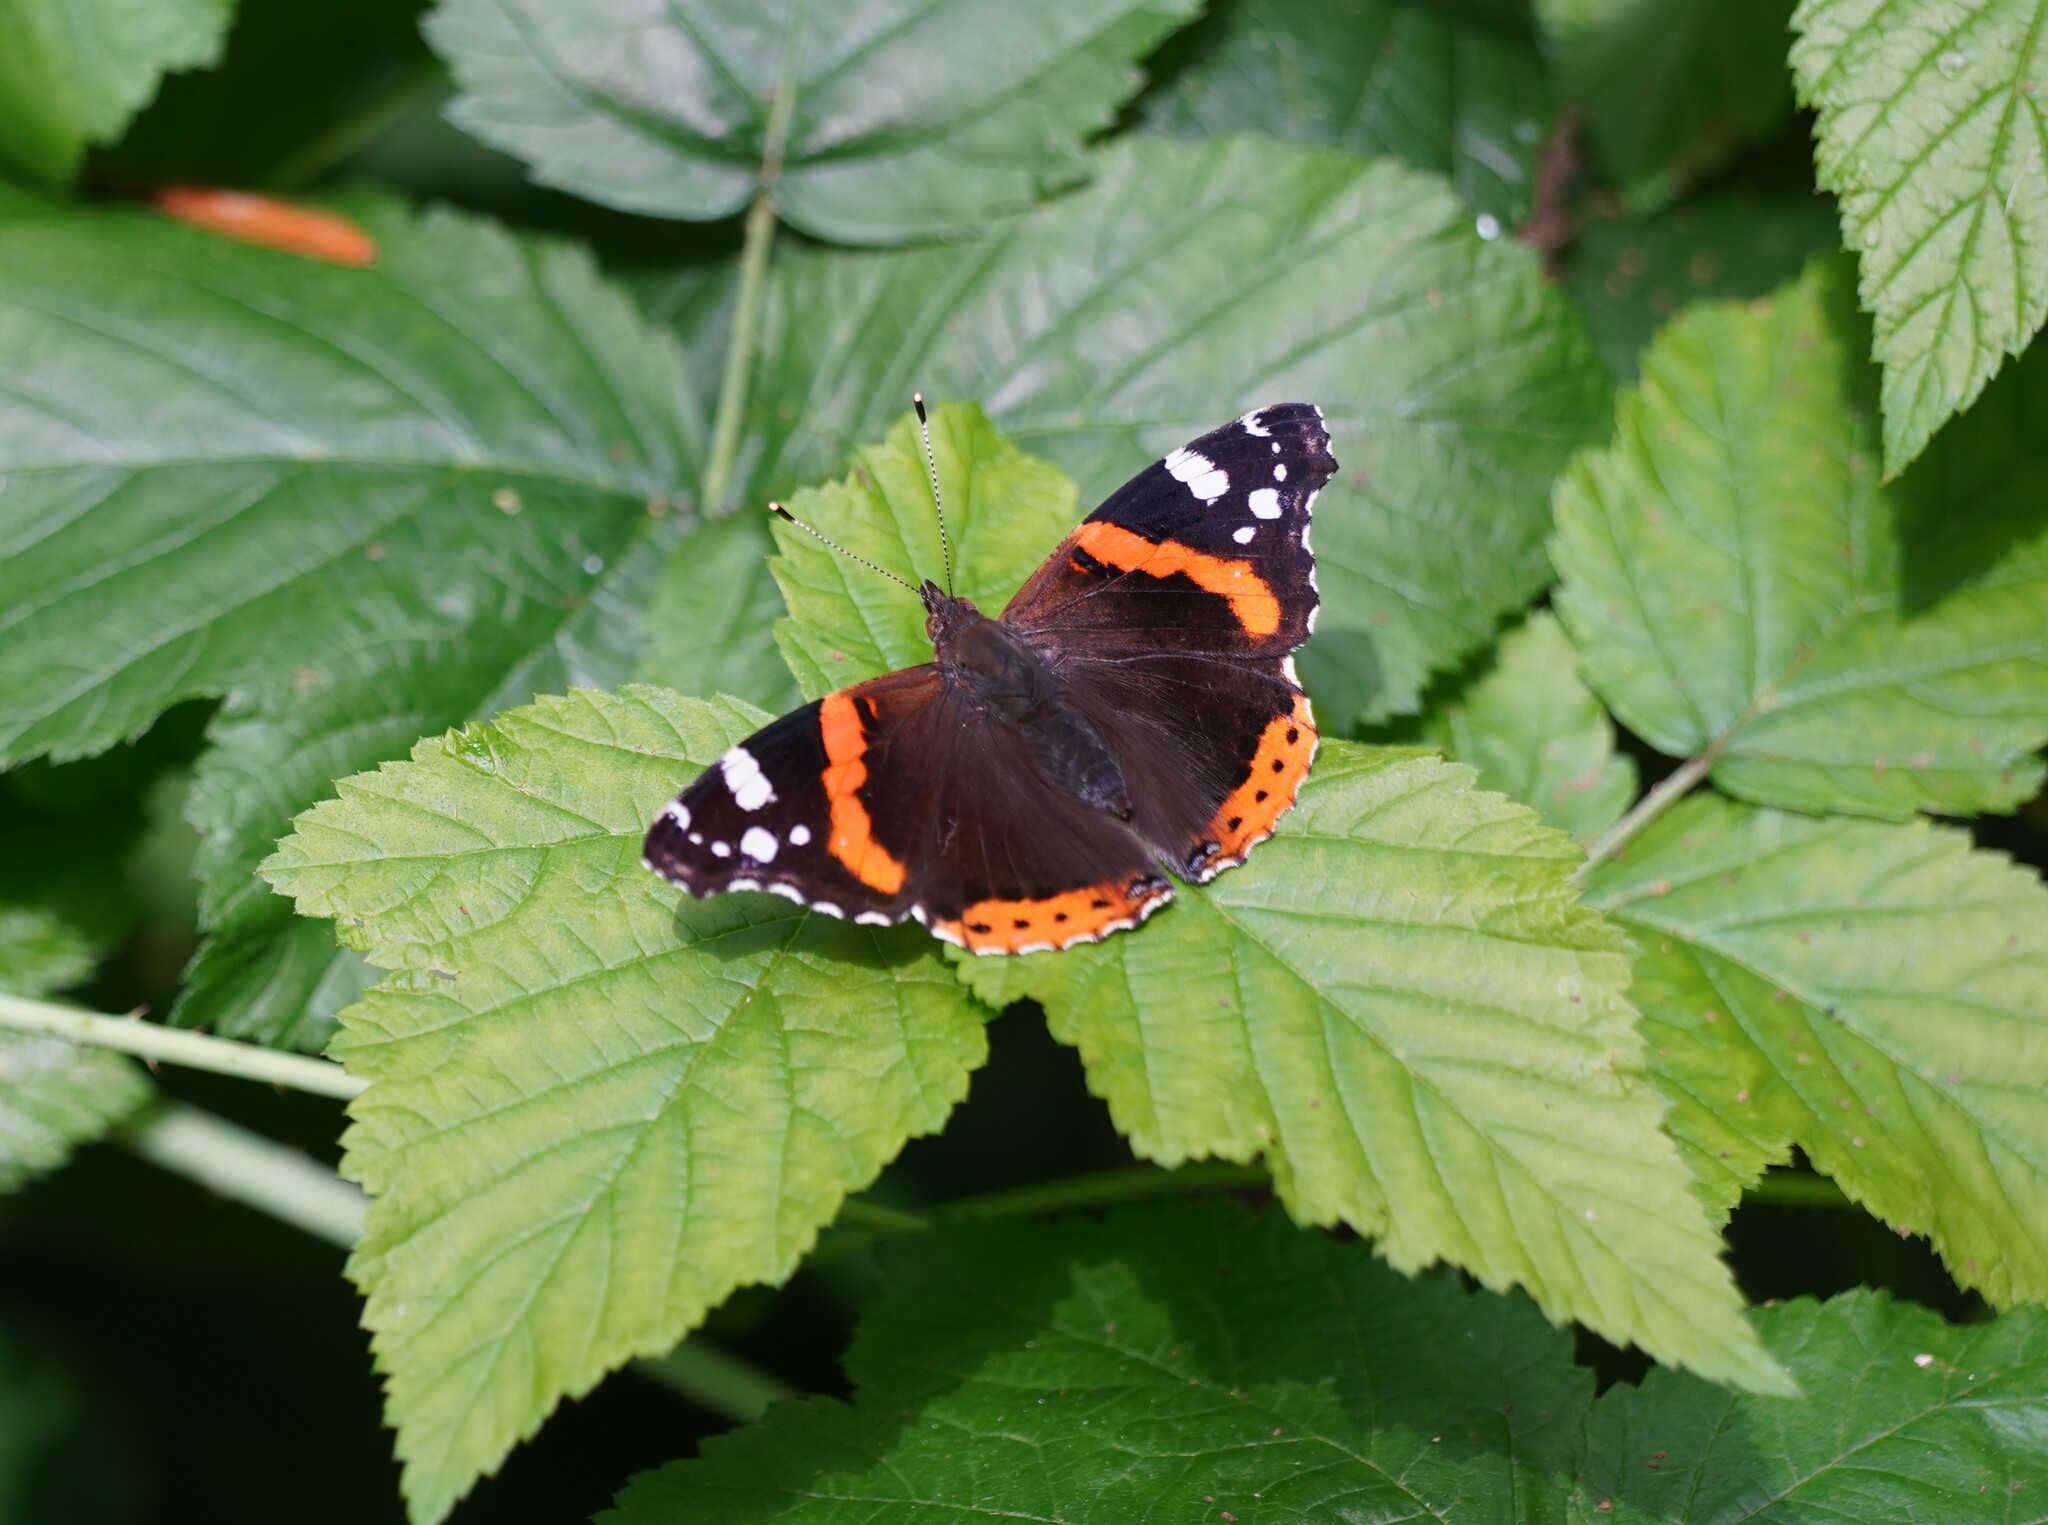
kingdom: Animalia
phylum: Arthropoda
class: Insecta
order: Lepidoptera
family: Nymphalidae
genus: Vanessa
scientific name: Vanessa atalanta
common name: Red admiral
